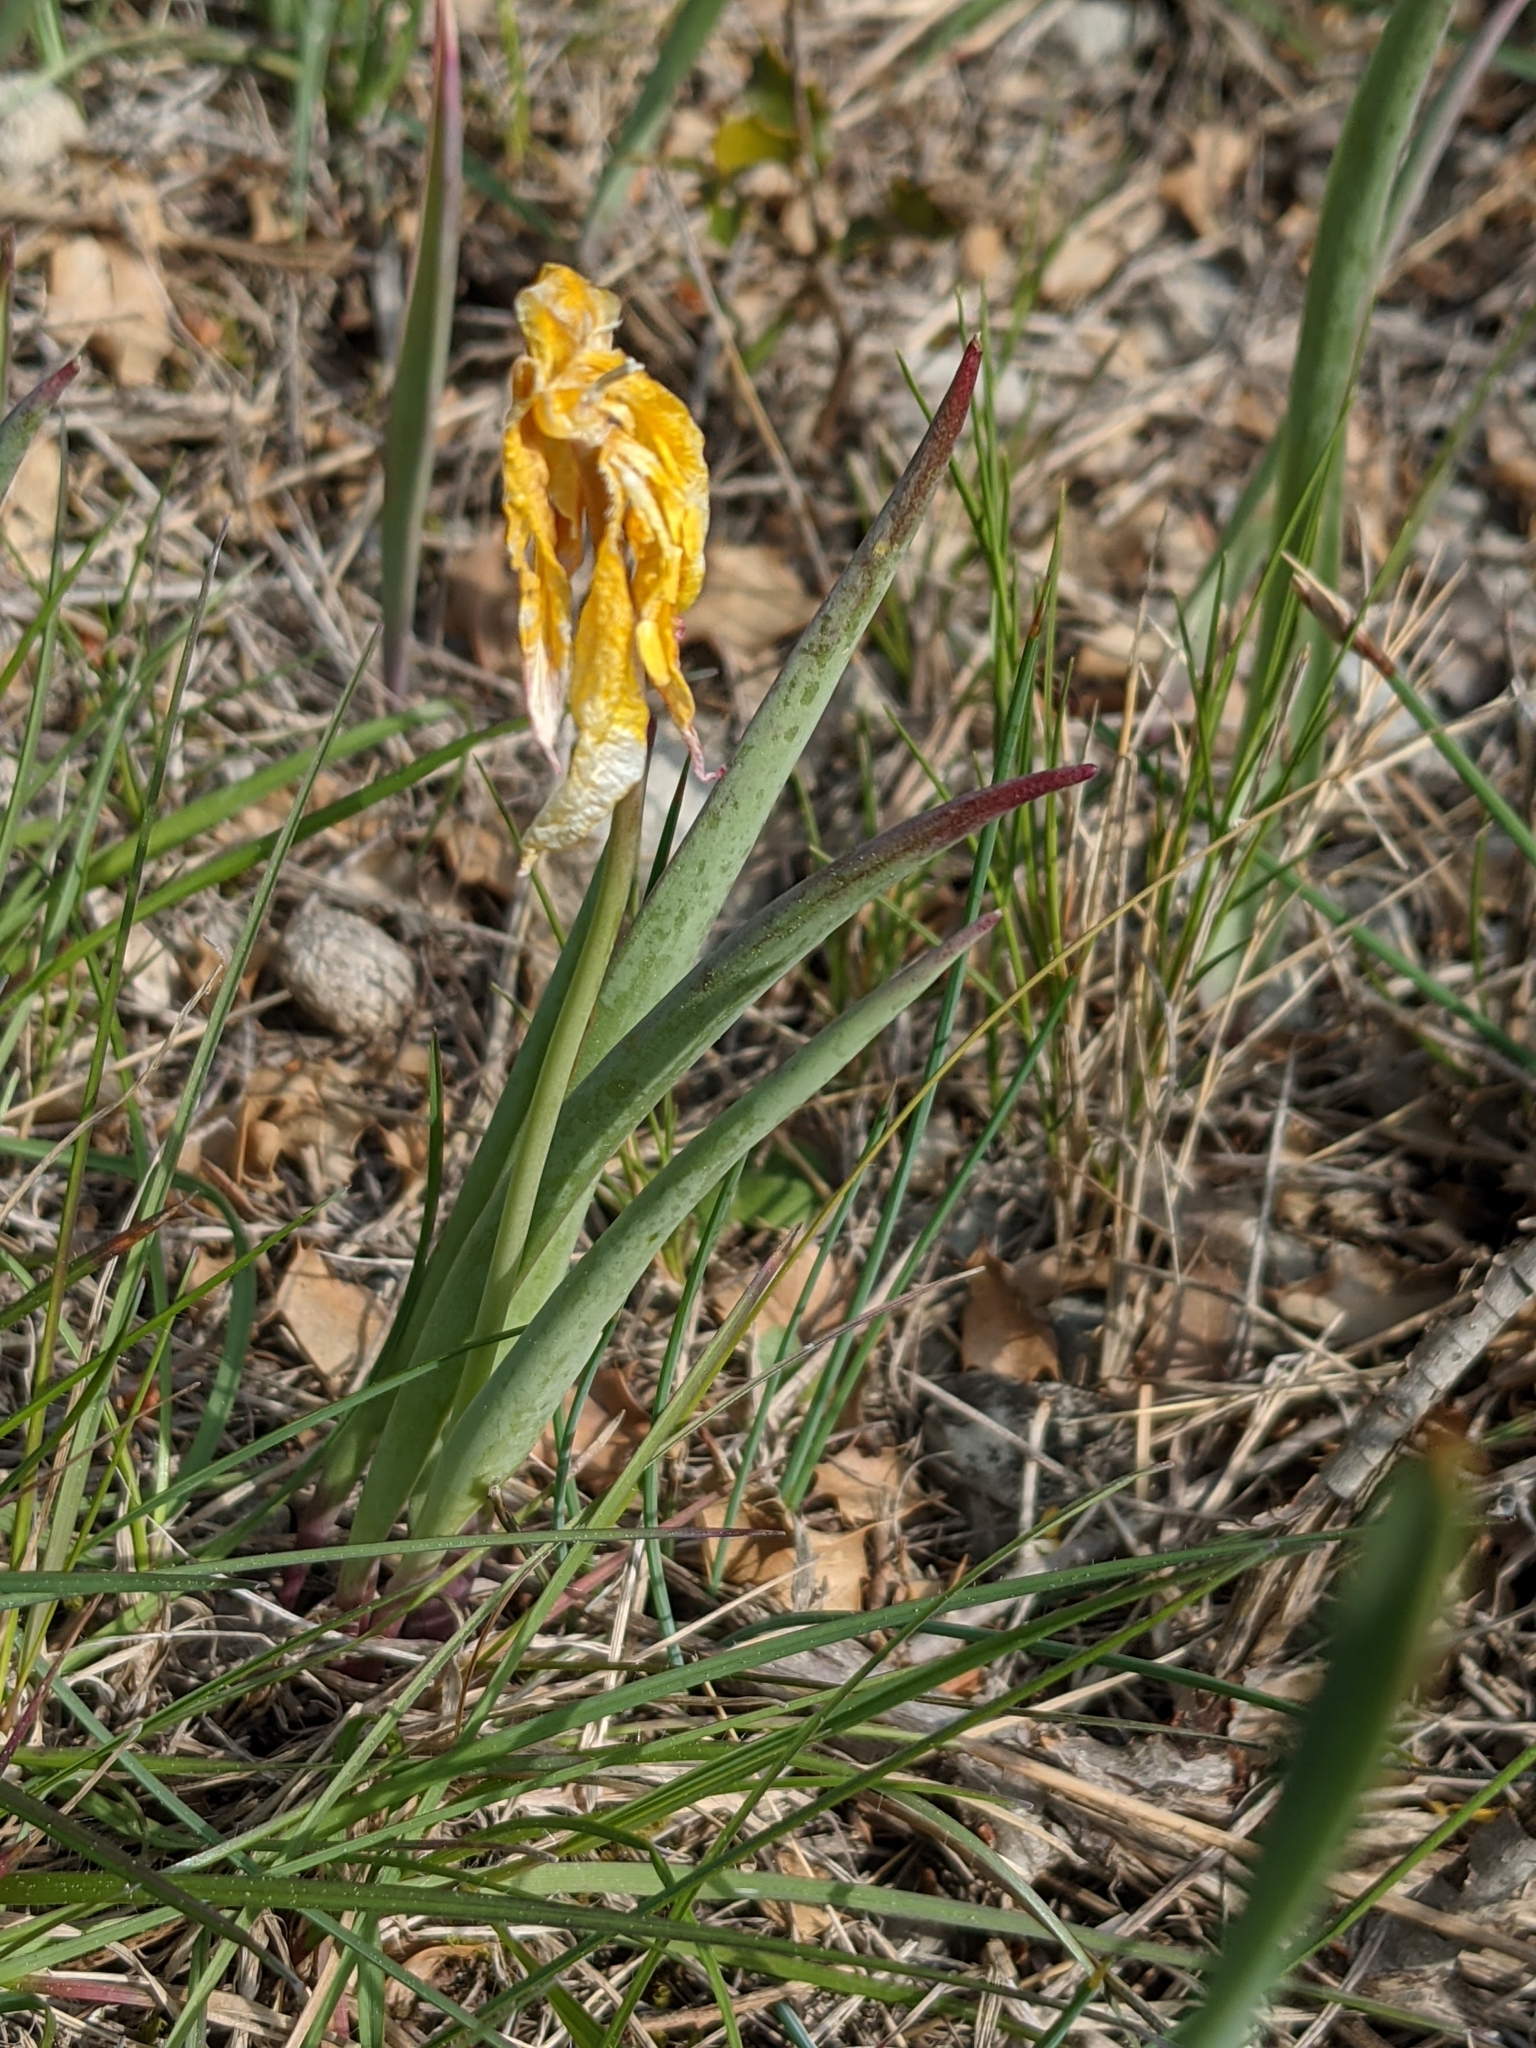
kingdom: Plantae
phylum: Tracheophyta
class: Liliopsida
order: Liliales
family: Liliaceae
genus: Tulipa
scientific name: Tulipa sylvestris
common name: Wild tulip
